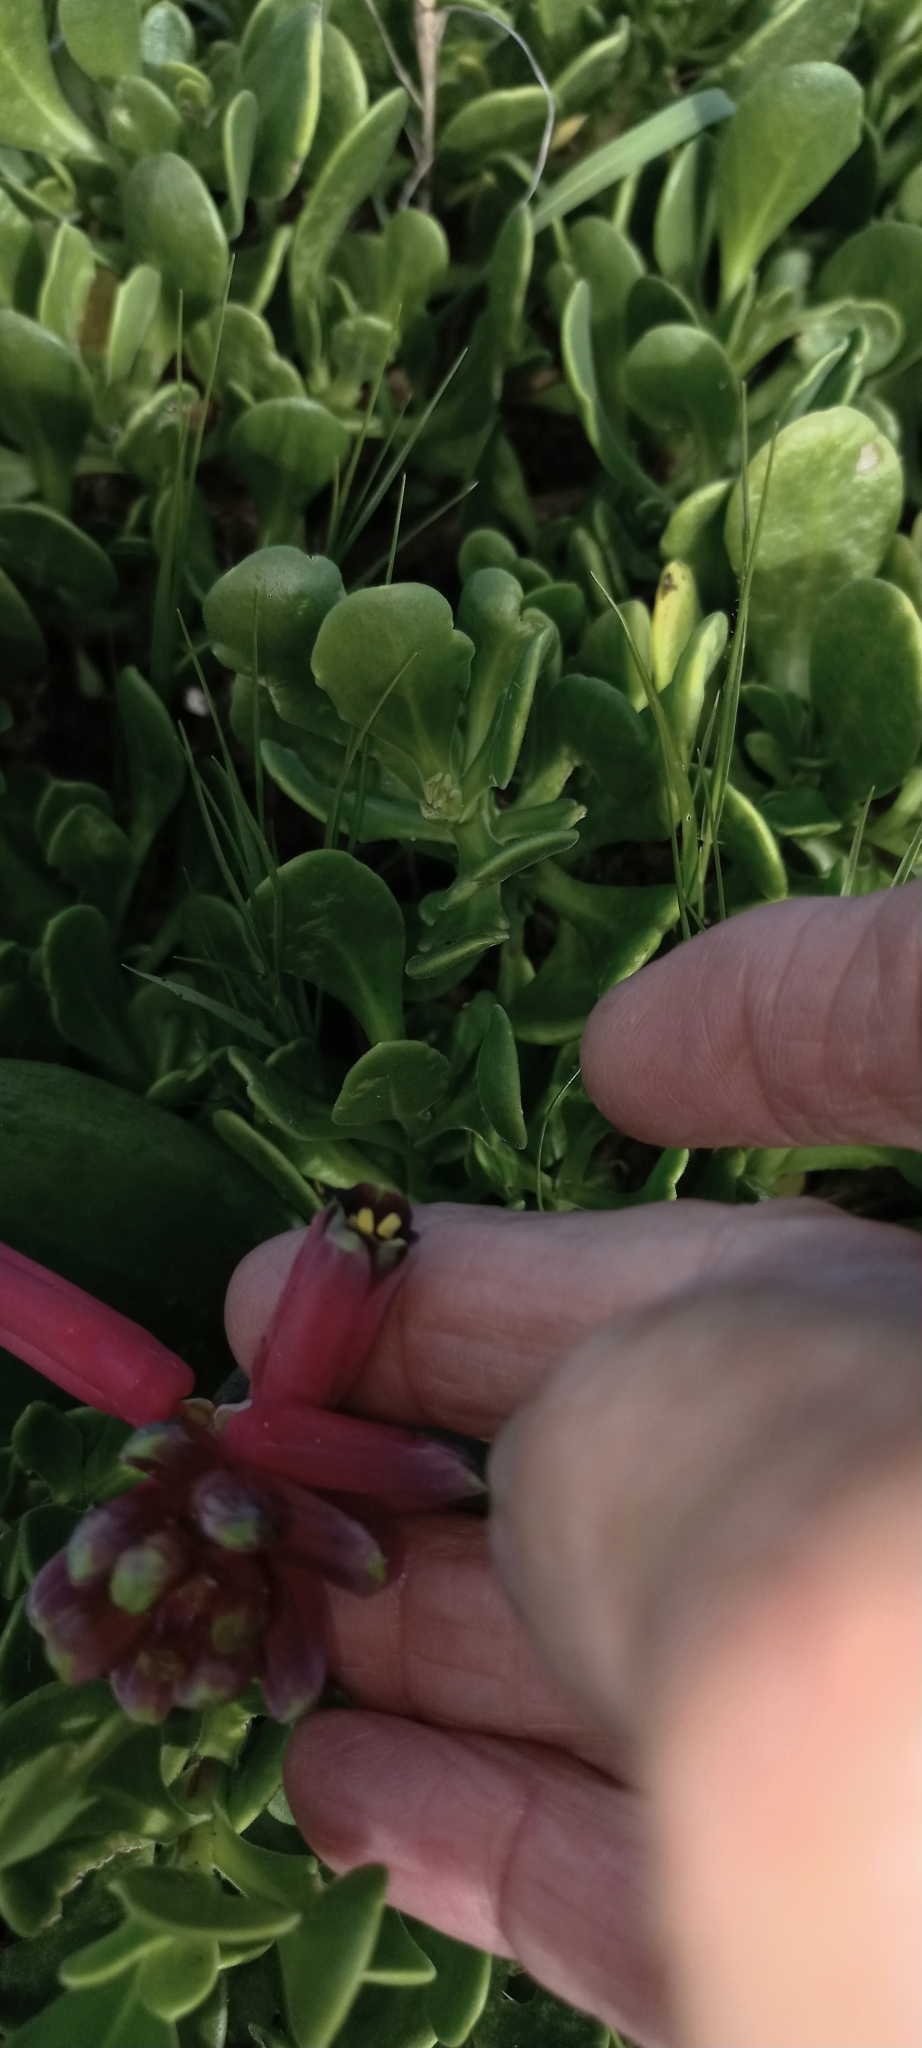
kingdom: Plantae
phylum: Tracheophyta
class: Liliopsida
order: Asparagales
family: Asparagaceae
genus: Lachenalia
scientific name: Lachenalia punctata
